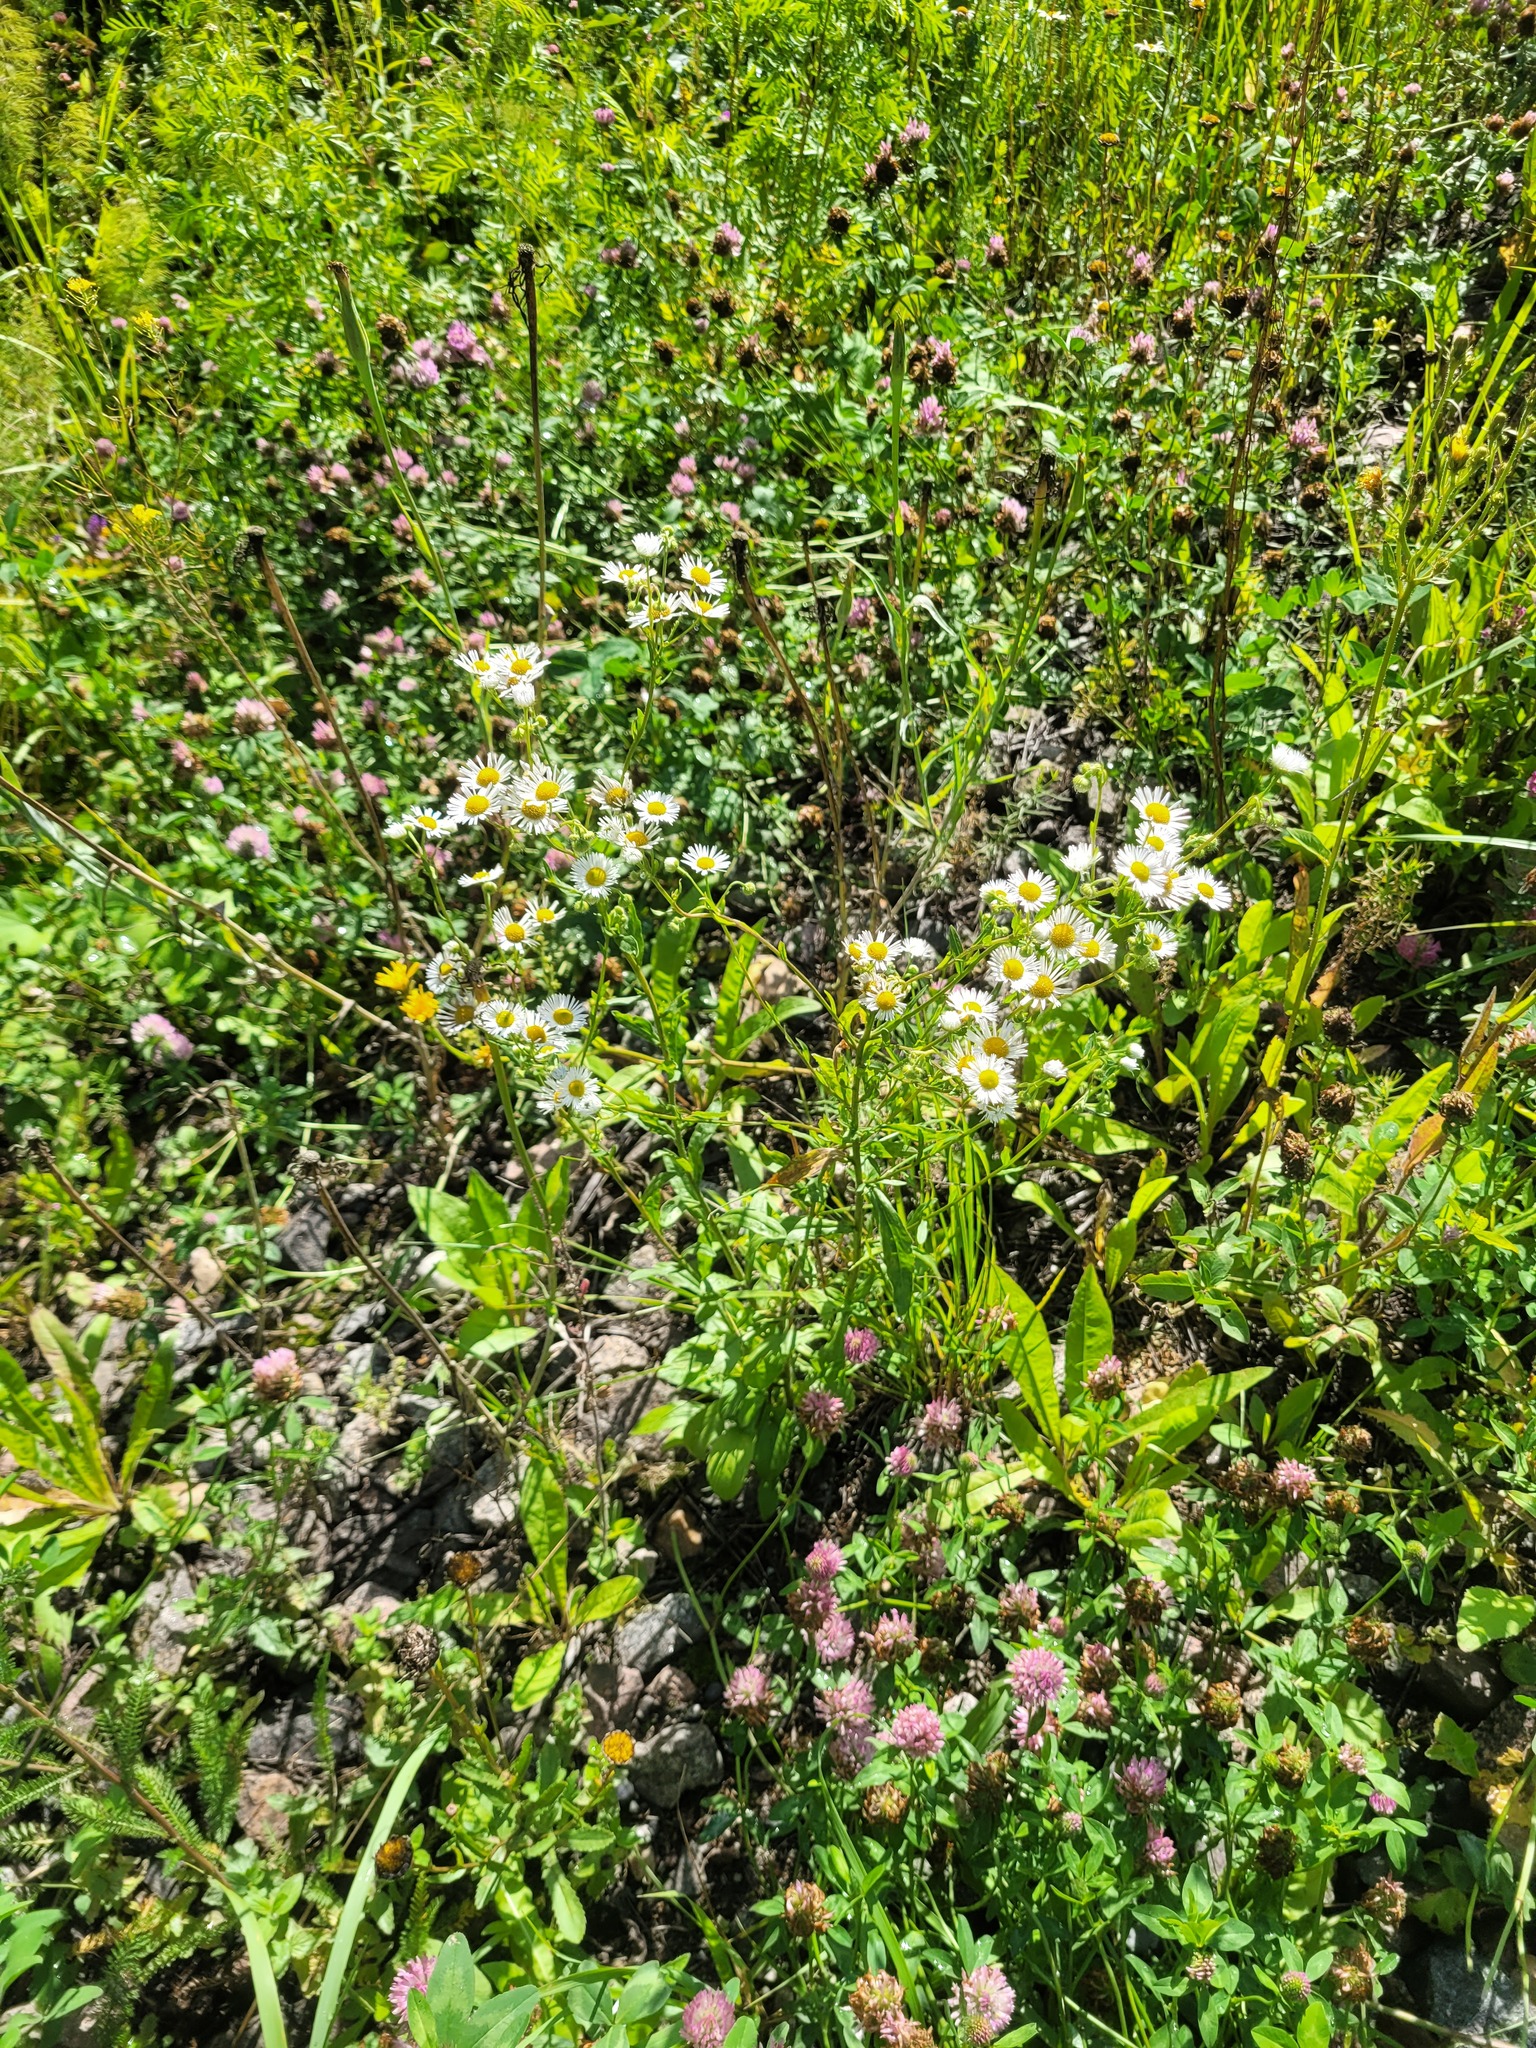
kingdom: Plantae
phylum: Tracheophyta
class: Magnoliopsida
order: Asterales
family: Asteraceae
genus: Erigeron
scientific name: Erigeron annuus
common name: Tall fleabane
